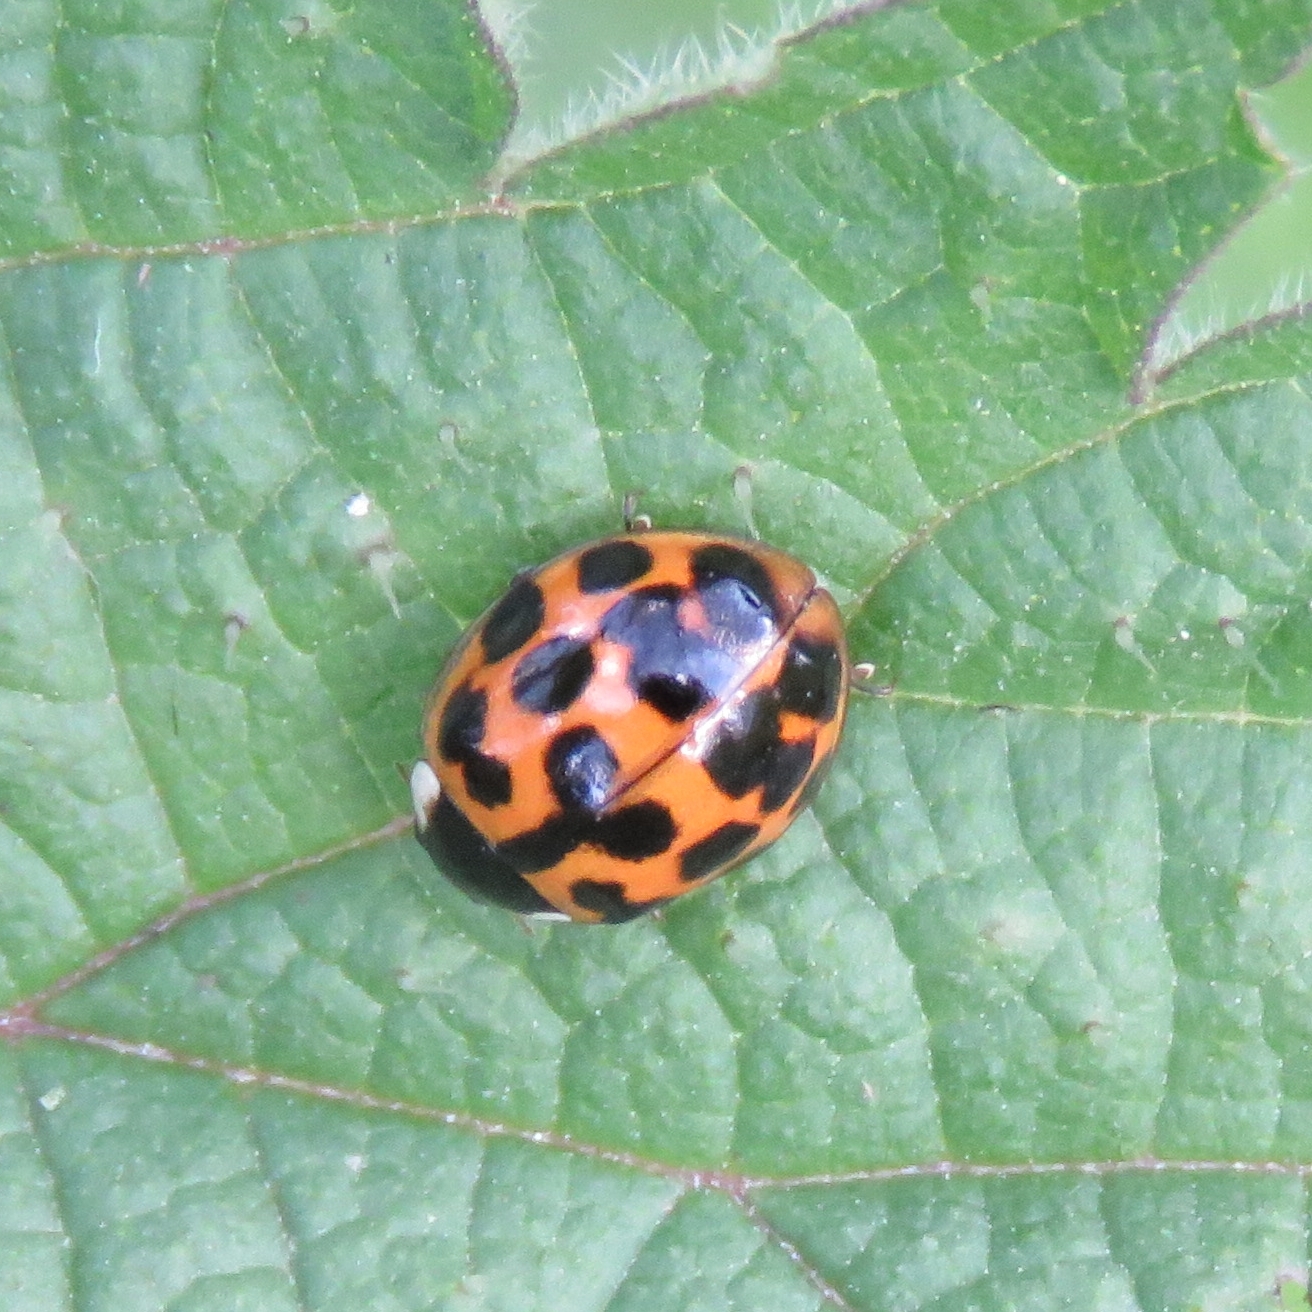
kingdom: Animalia
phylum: Arthropoda
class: Insecta
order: Coleoptera
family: Coccinellidae
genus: Harmonia
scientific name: Harmonia axyridis
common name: Harlequin ladybird
